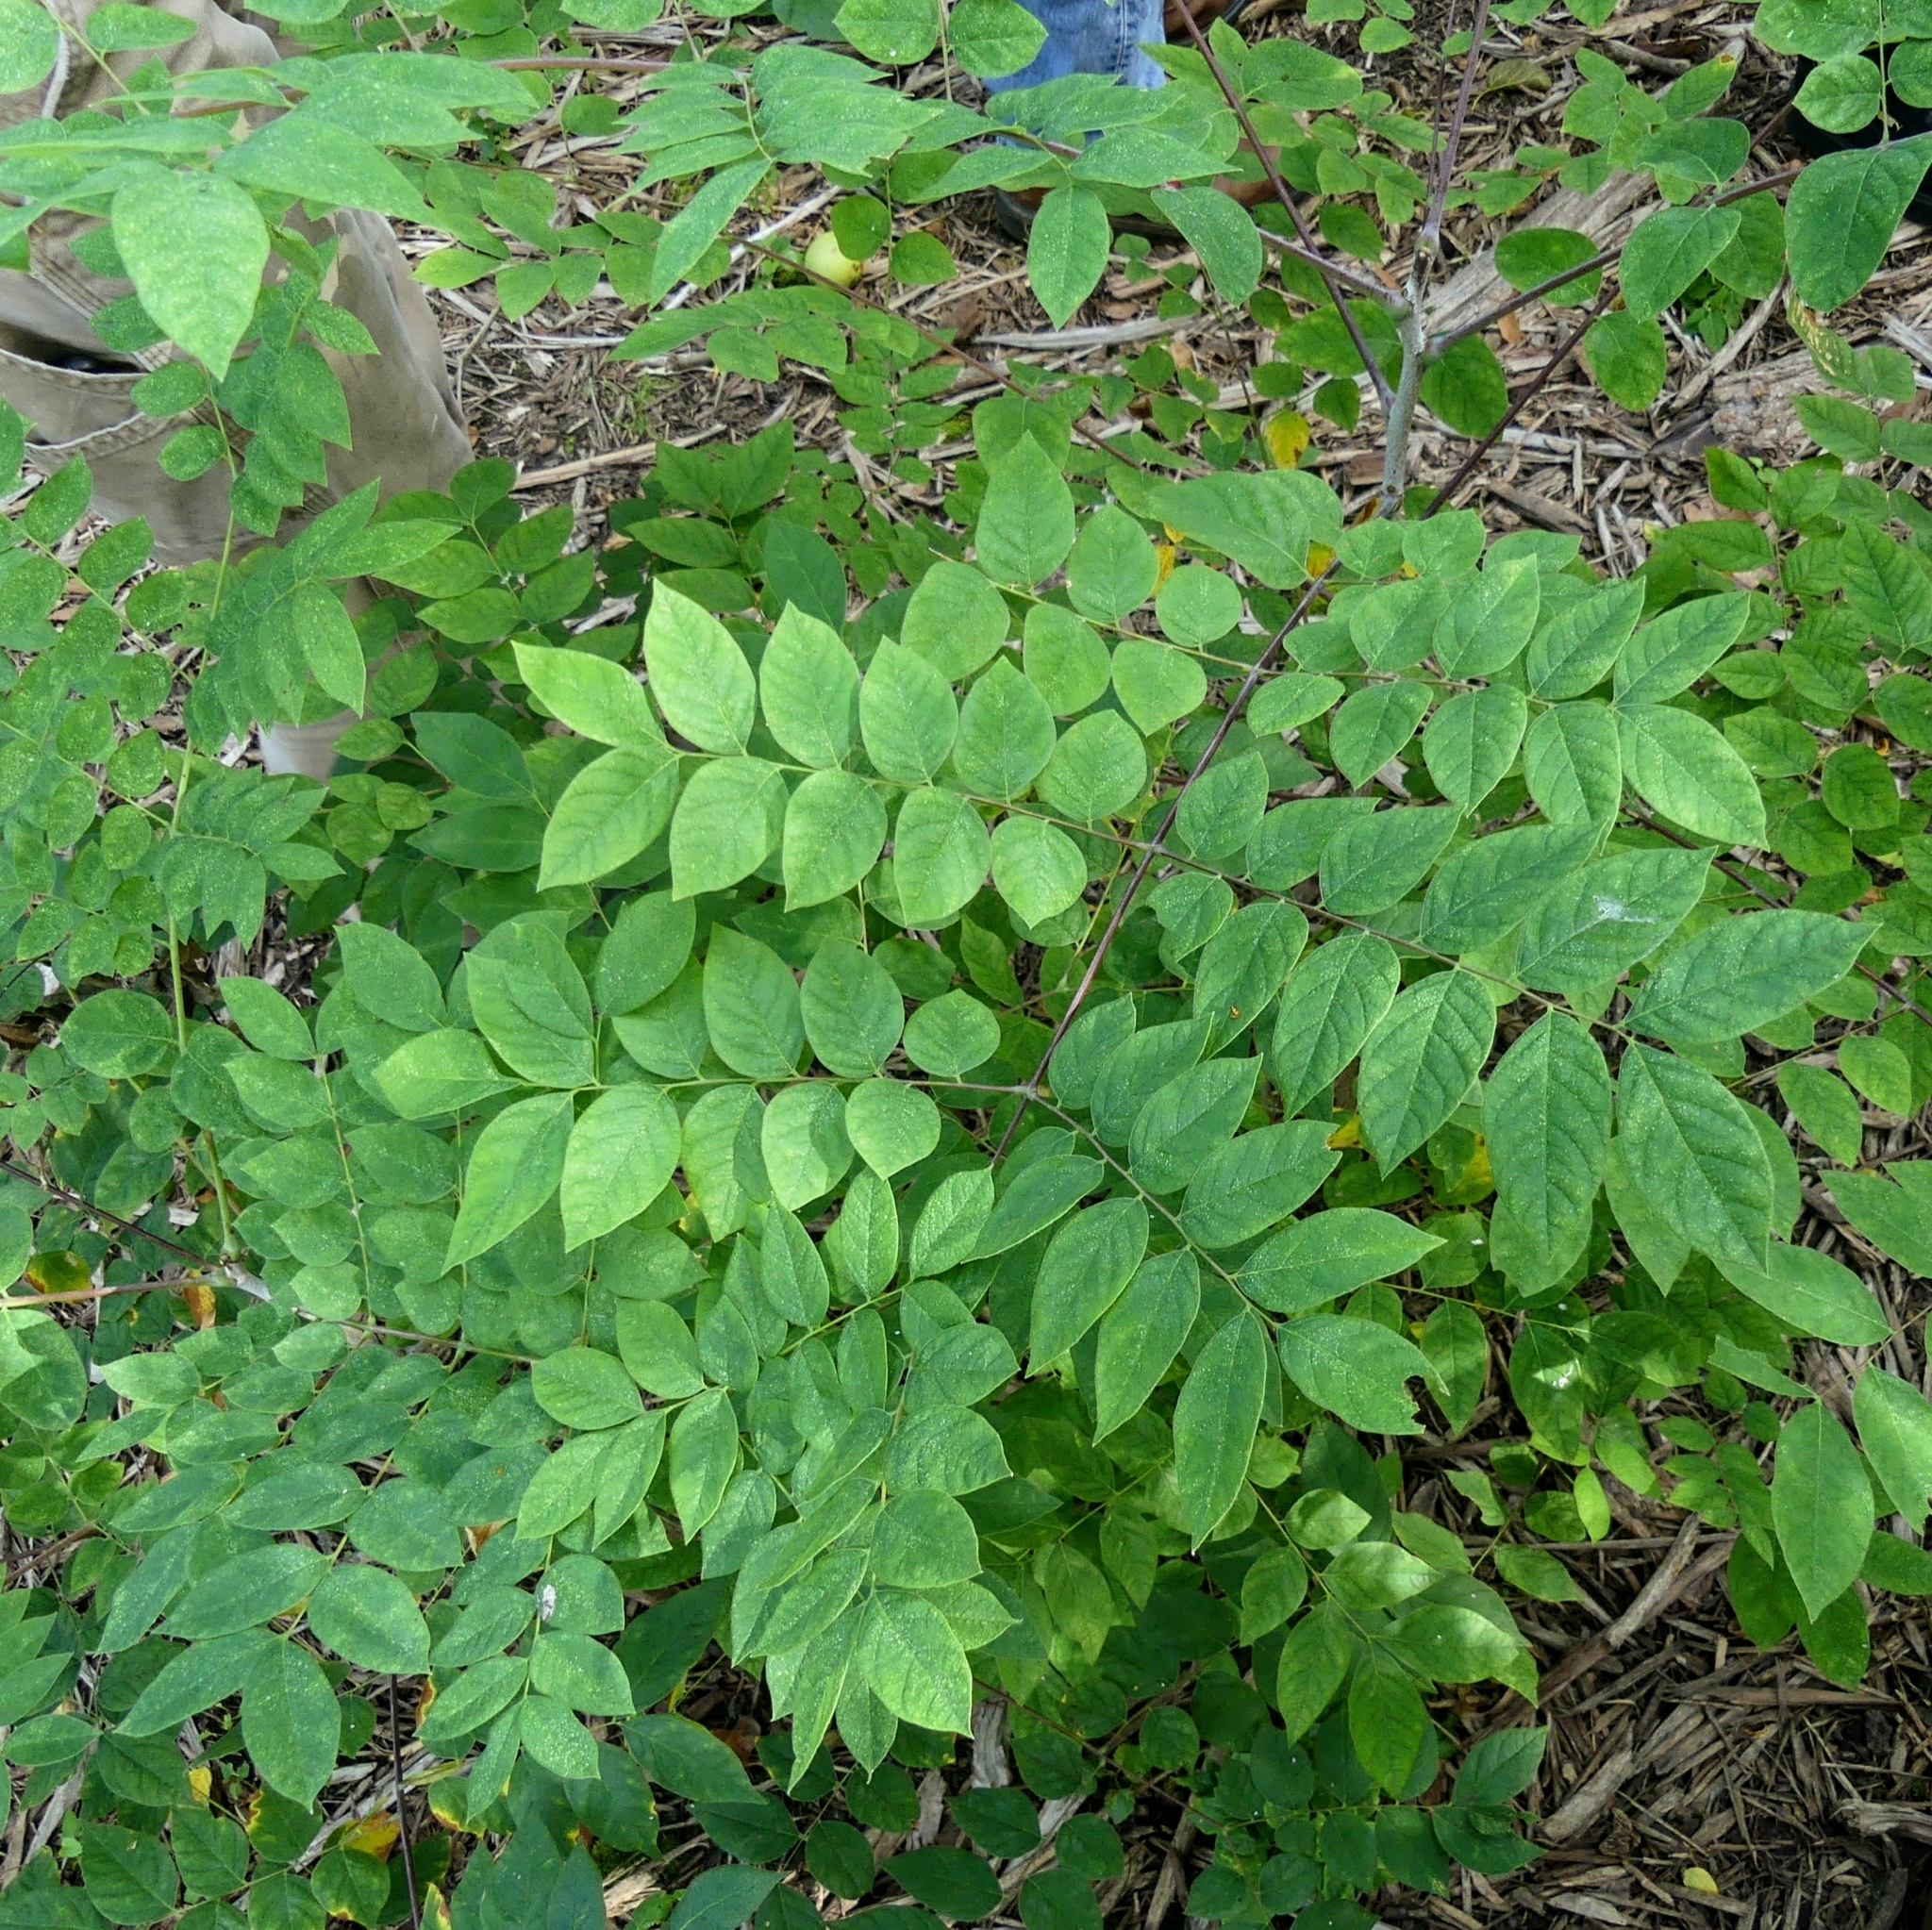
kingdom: Plantae
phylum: Tracheophyta
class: Magnoliopsida
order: Fabales
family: Fabaceae
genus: Gymnocladus
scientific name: Gymnocladus dioicus
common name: Kentucky coffee-tree
